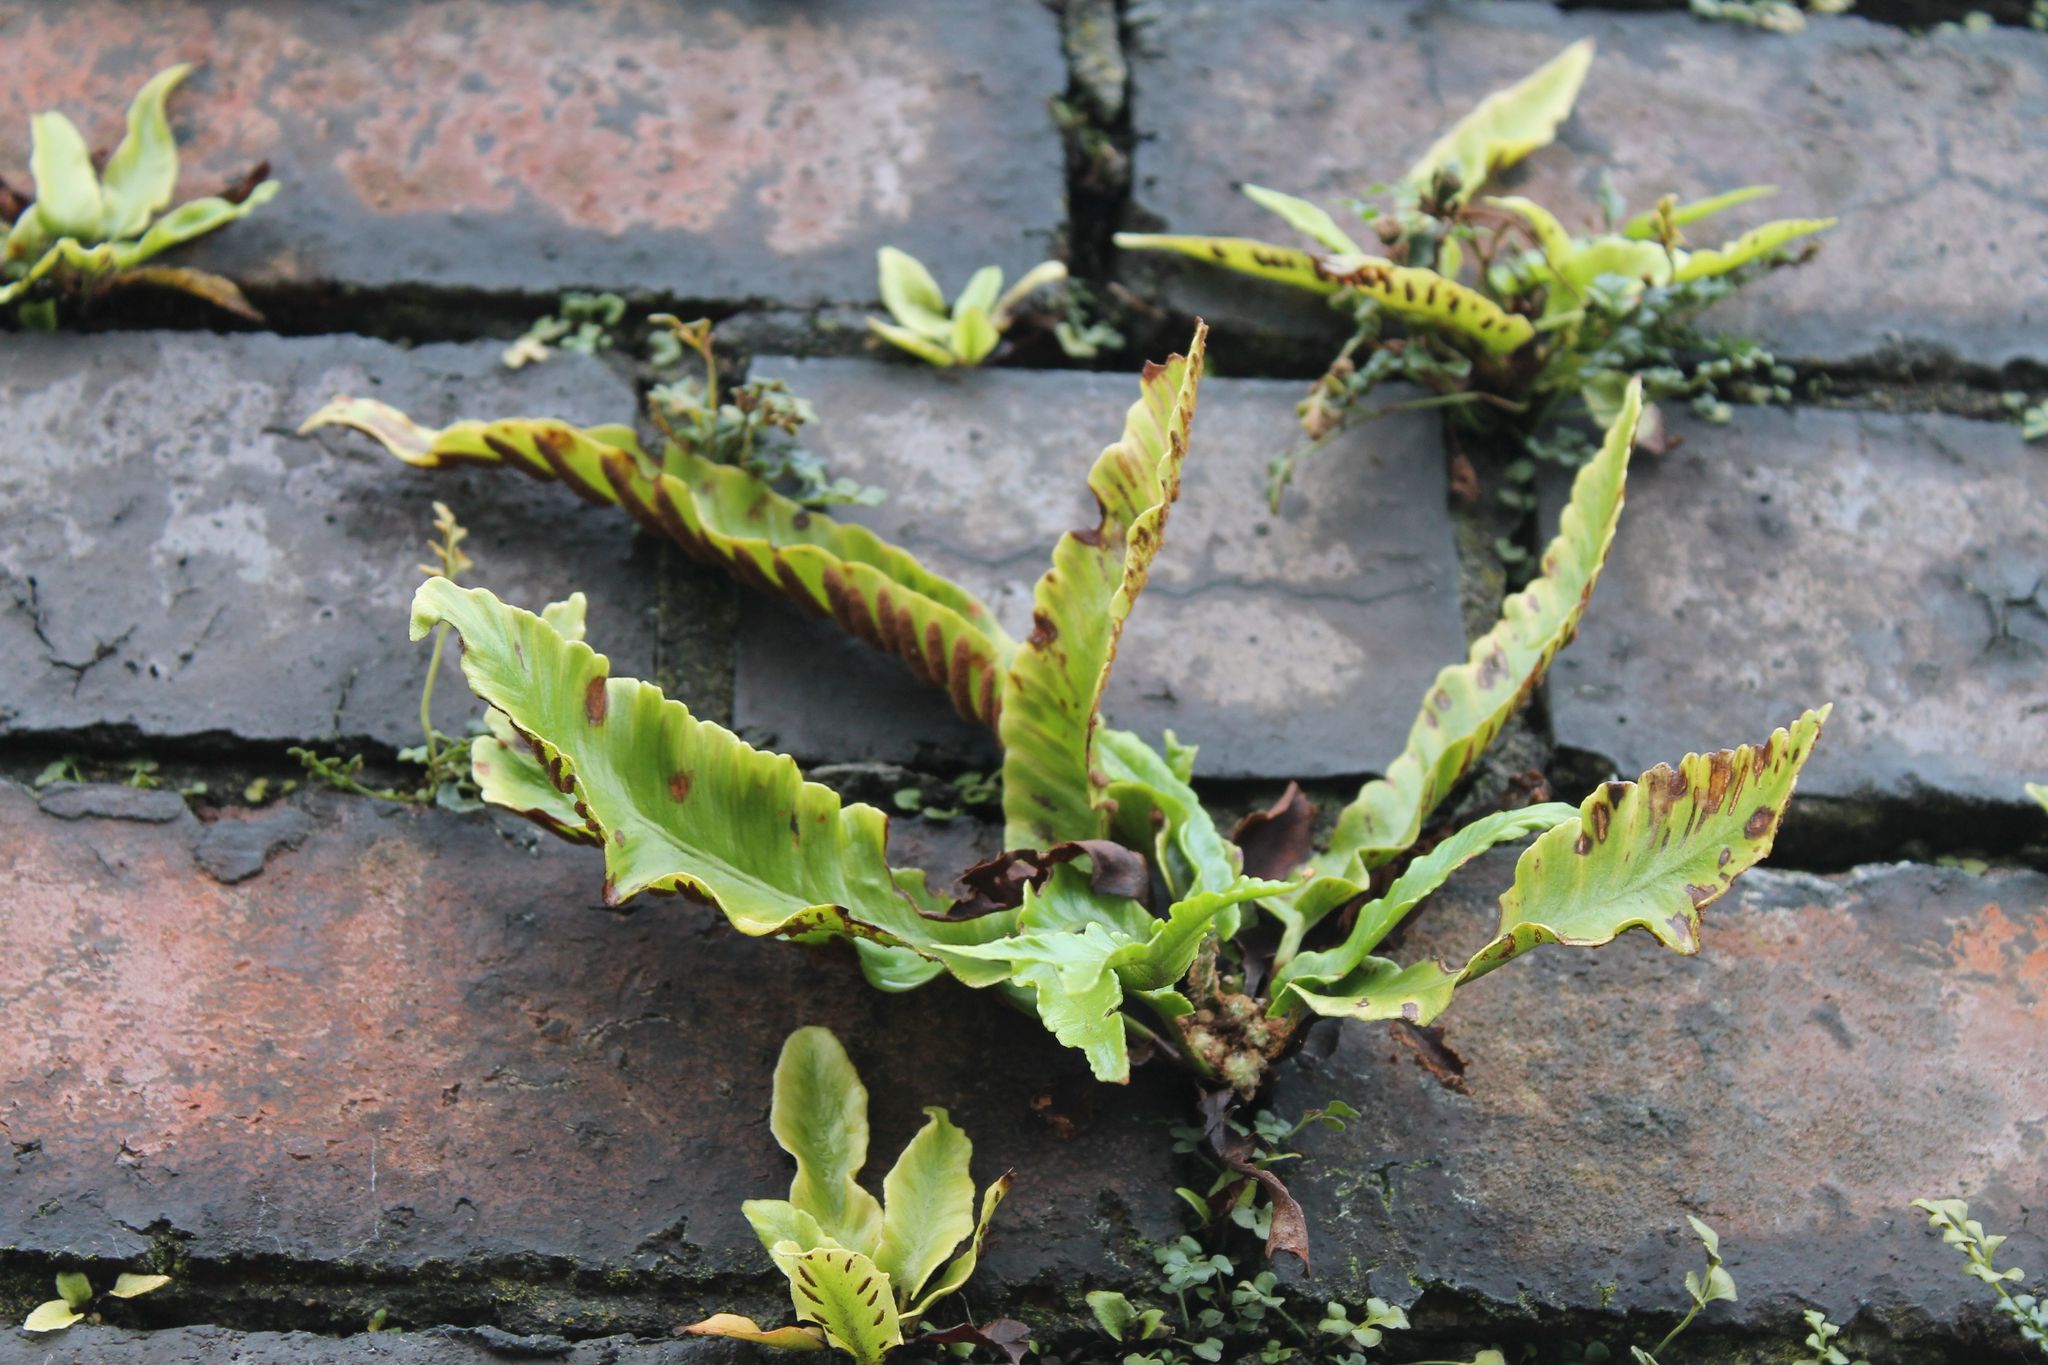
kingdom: Plantae
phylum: Tracheophyta
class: Polypodiopsida
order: Polypodiales
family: Aspleniaceae
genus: Asplenium
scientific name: Asplenium scolopendrium
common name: Hart's-tongue fern
